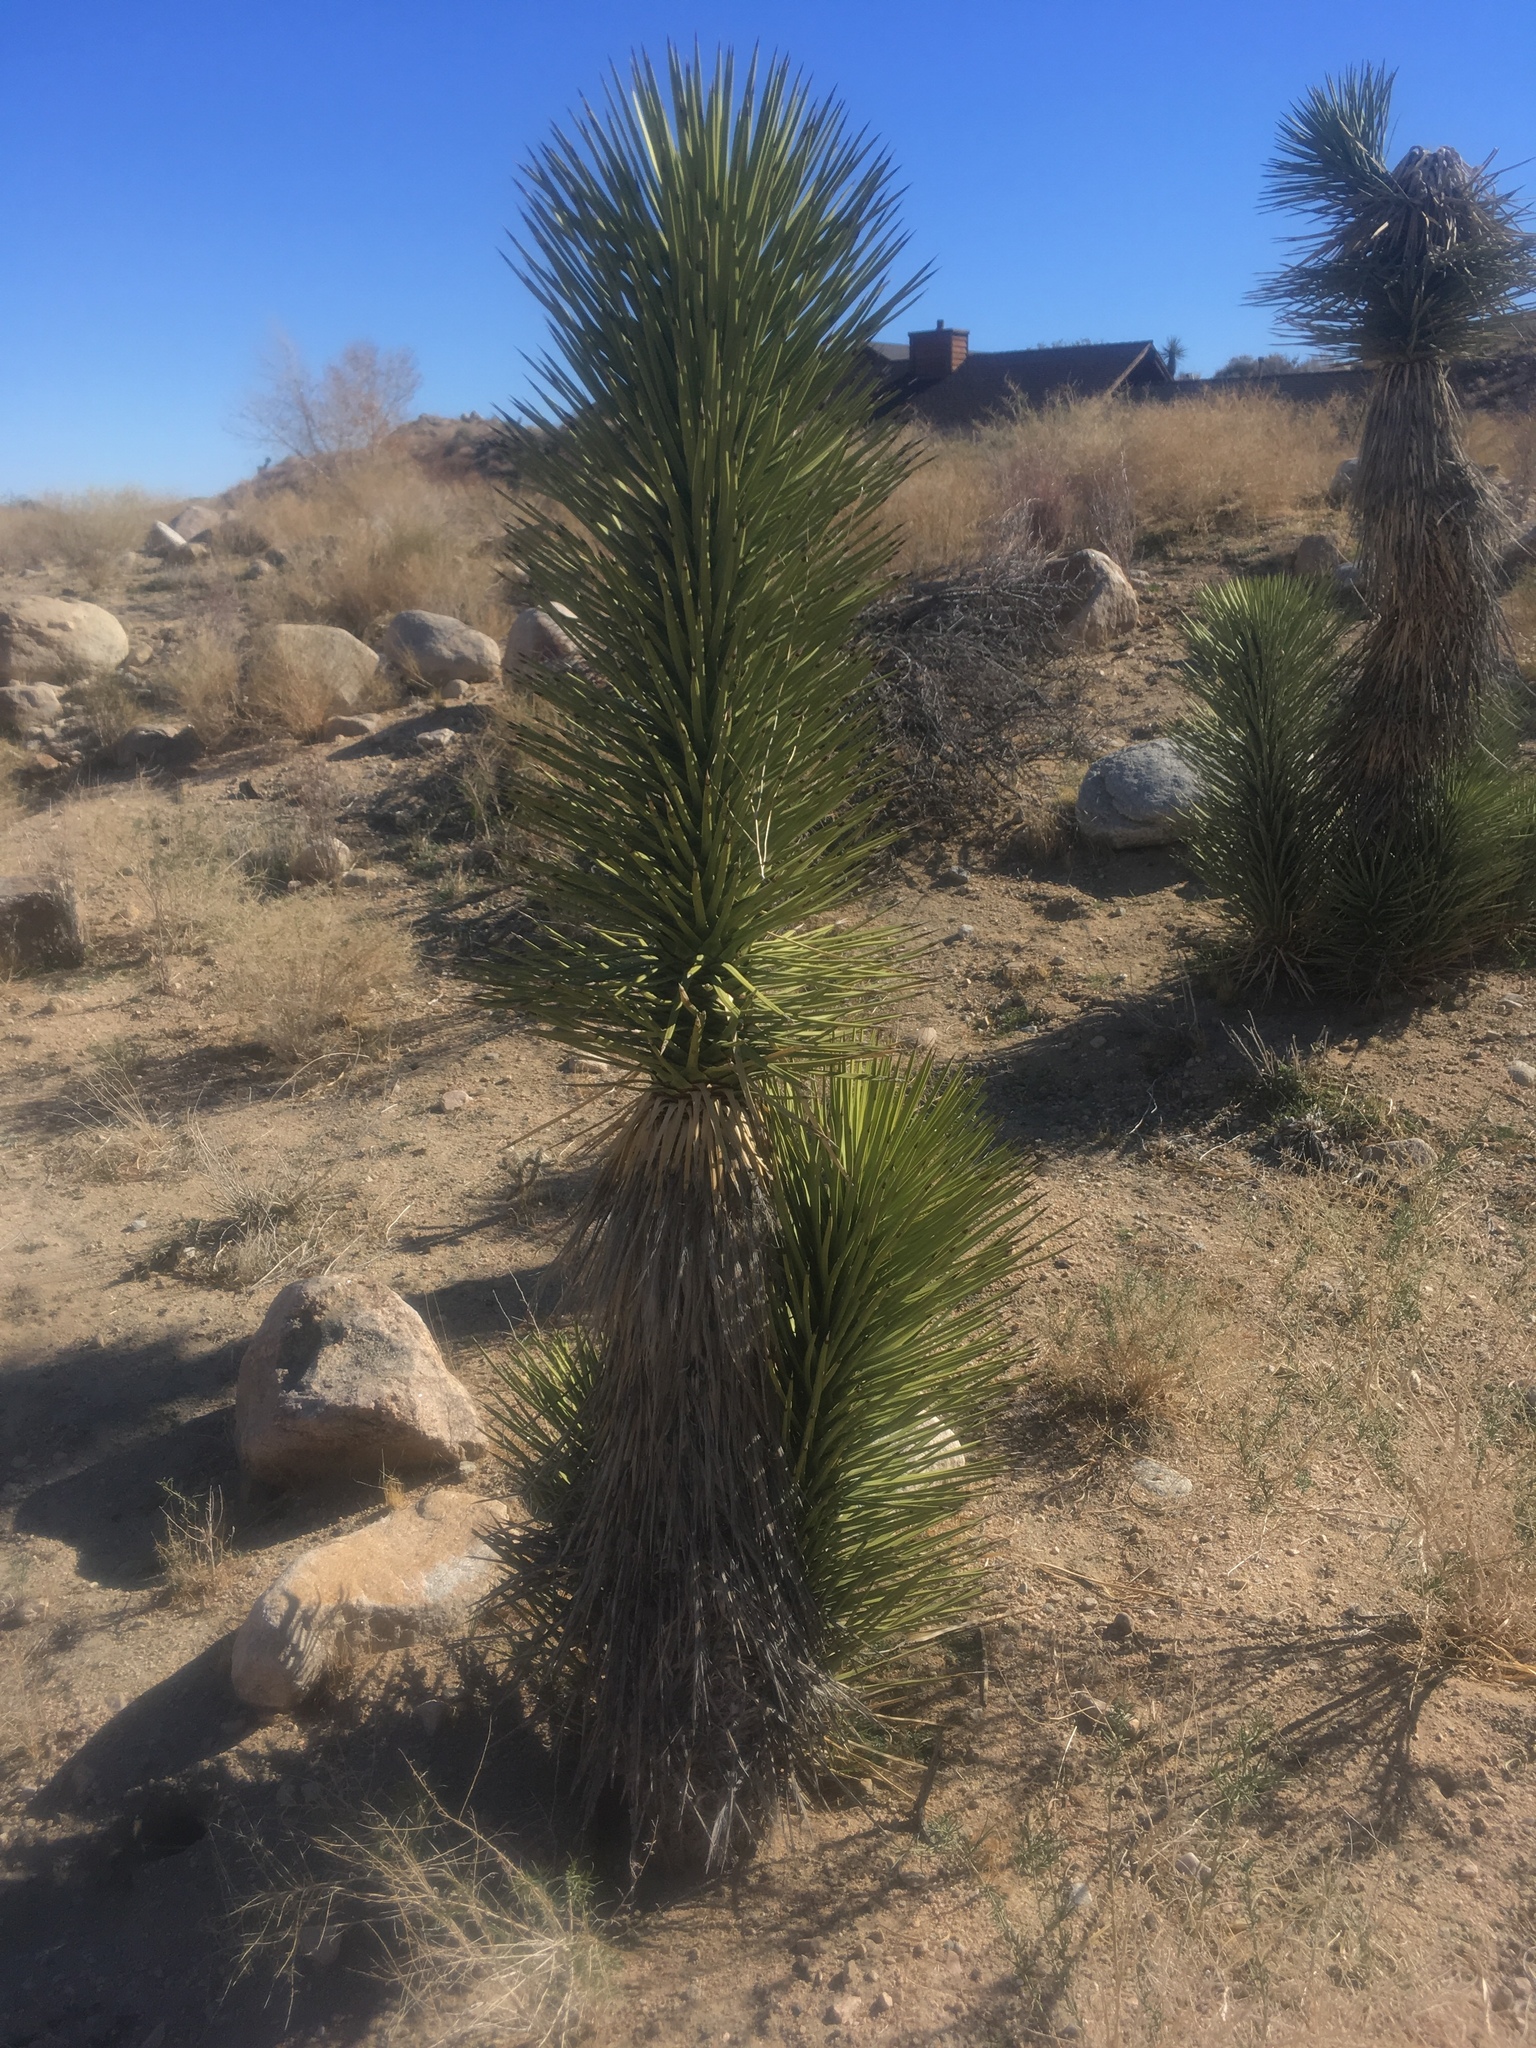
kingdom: Plantae
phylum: Tracheophyta
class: Liliopsida
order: Asparagales
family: Asparagaceae
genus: Yucca
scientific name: Yucca brevifolia
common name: Joshua tree
